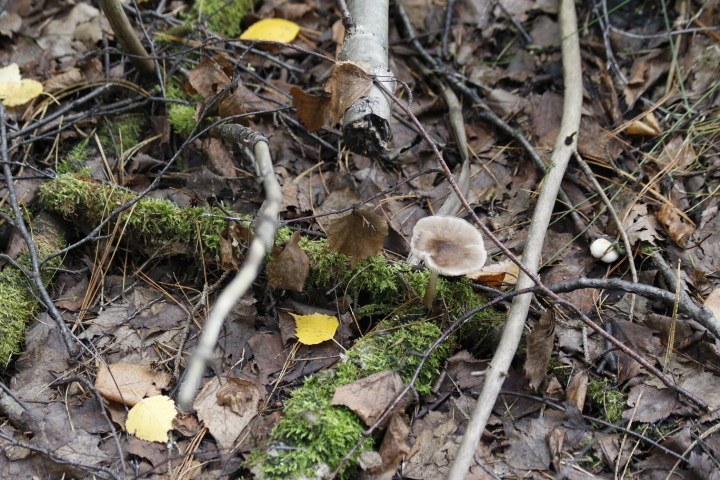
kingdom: Fungi
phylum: Basidiomycota
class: Agaricomycetes
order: Agaricales
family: Pluteaceae
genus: Pluteus
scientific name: Pluteus cervinus
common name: Deer shield
